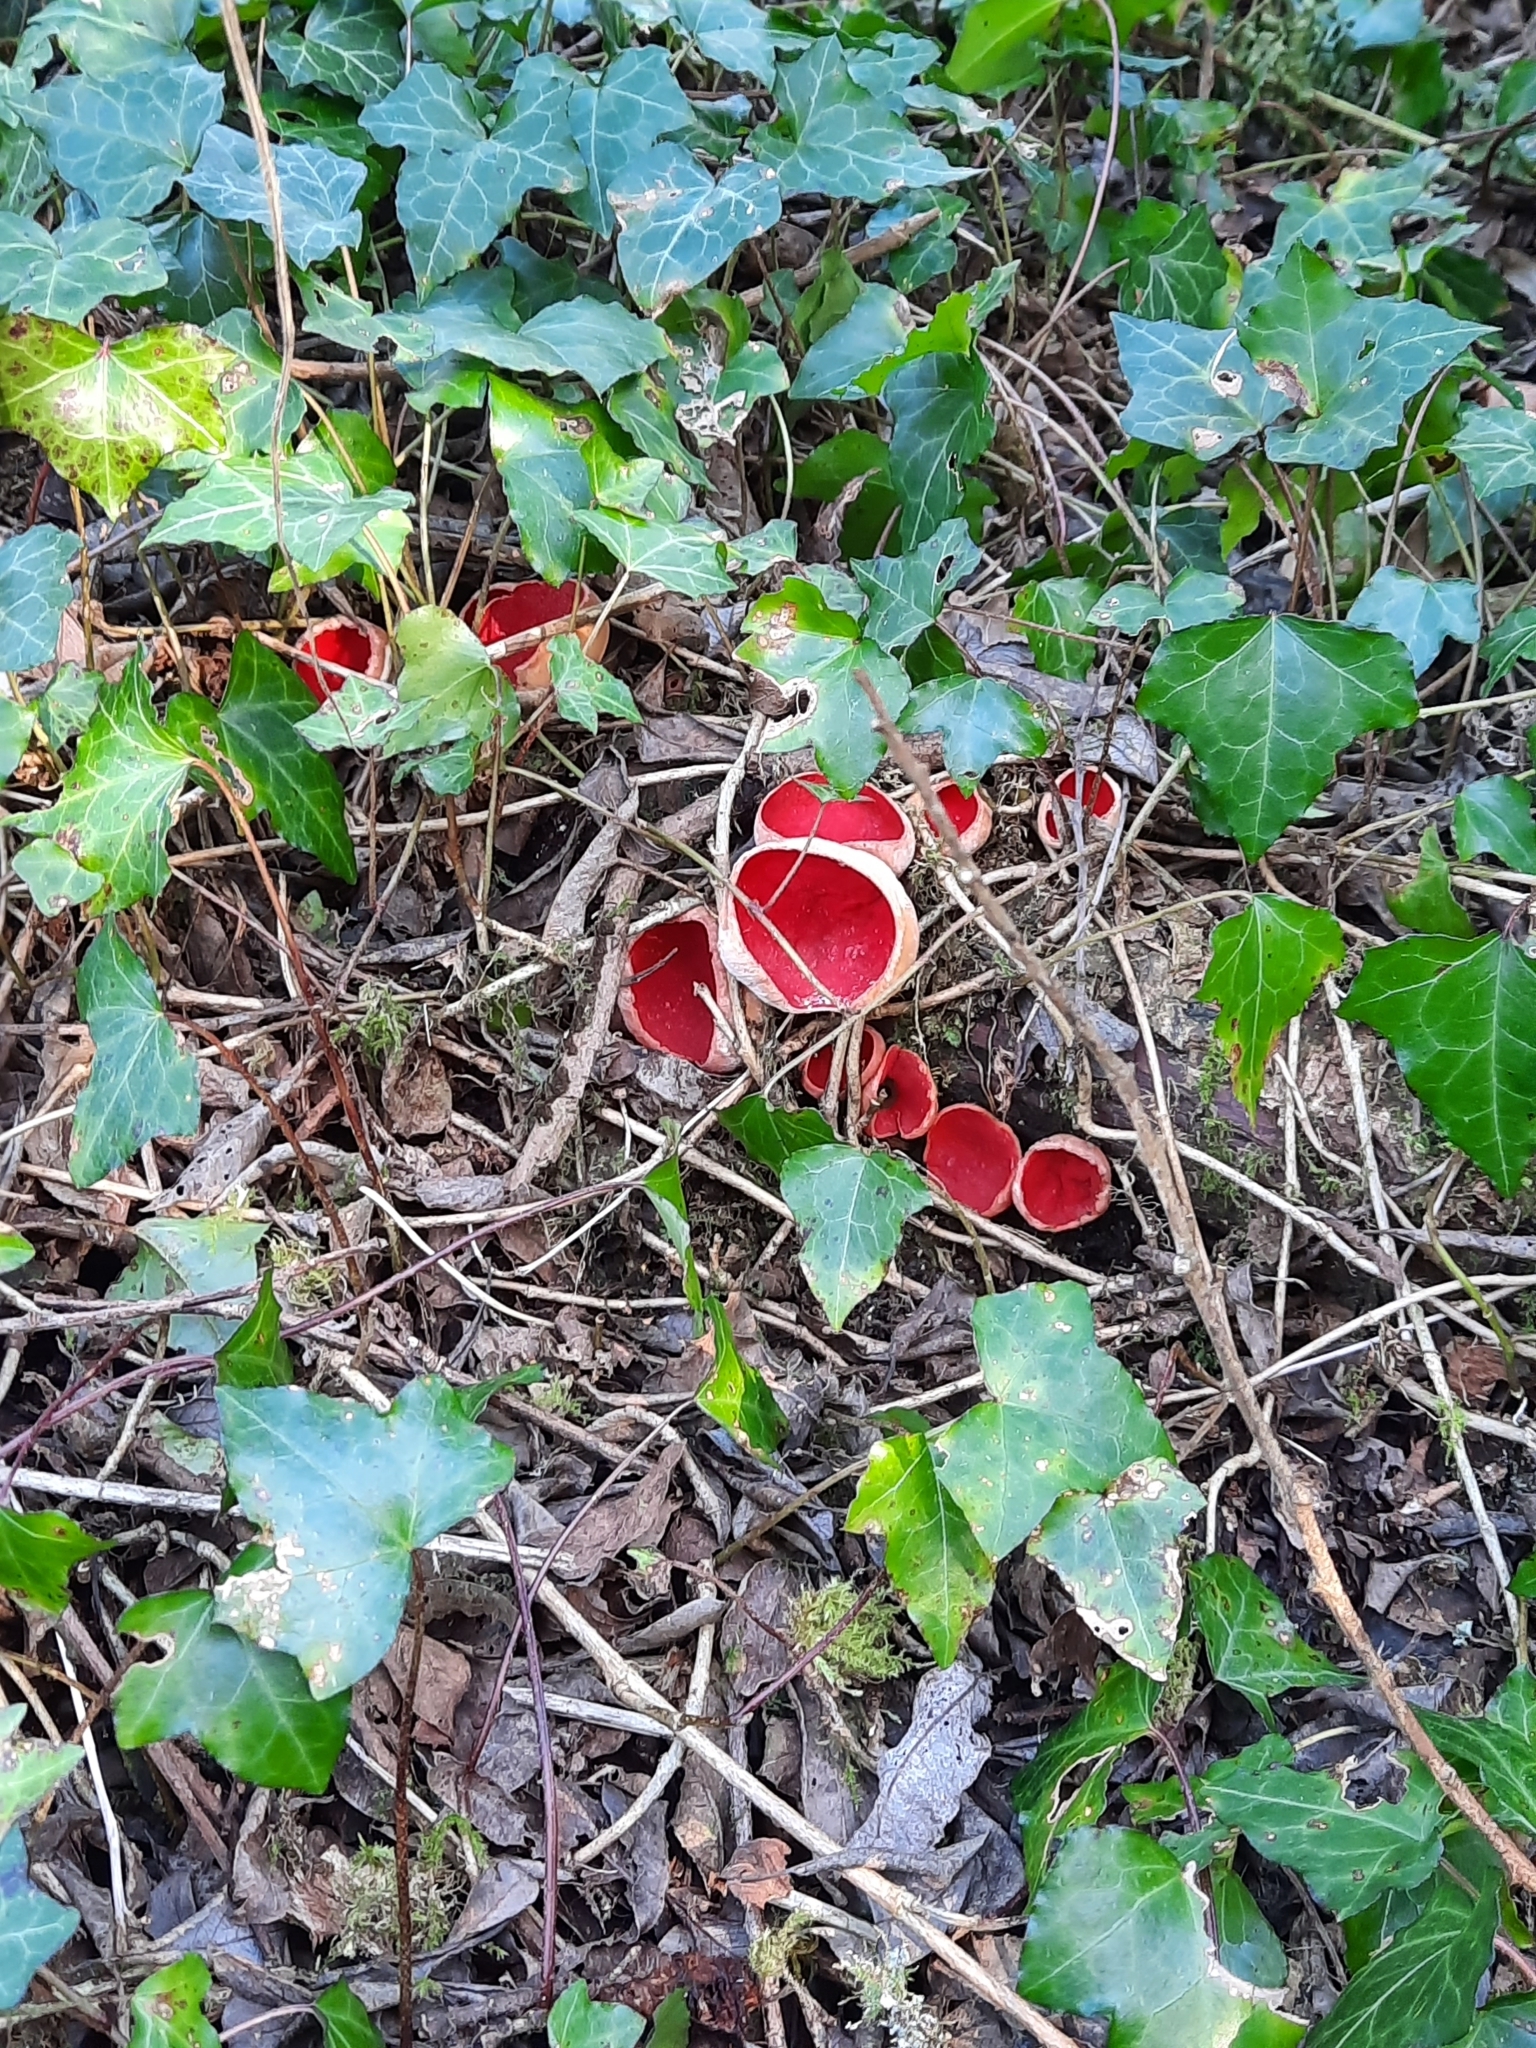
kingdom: Fungi
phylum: Ascomycota
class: Pezizomycetes
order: Pezizales
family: Sarcoscyphaceae
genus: Sarcoscypha
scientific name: Sarcoscypha
